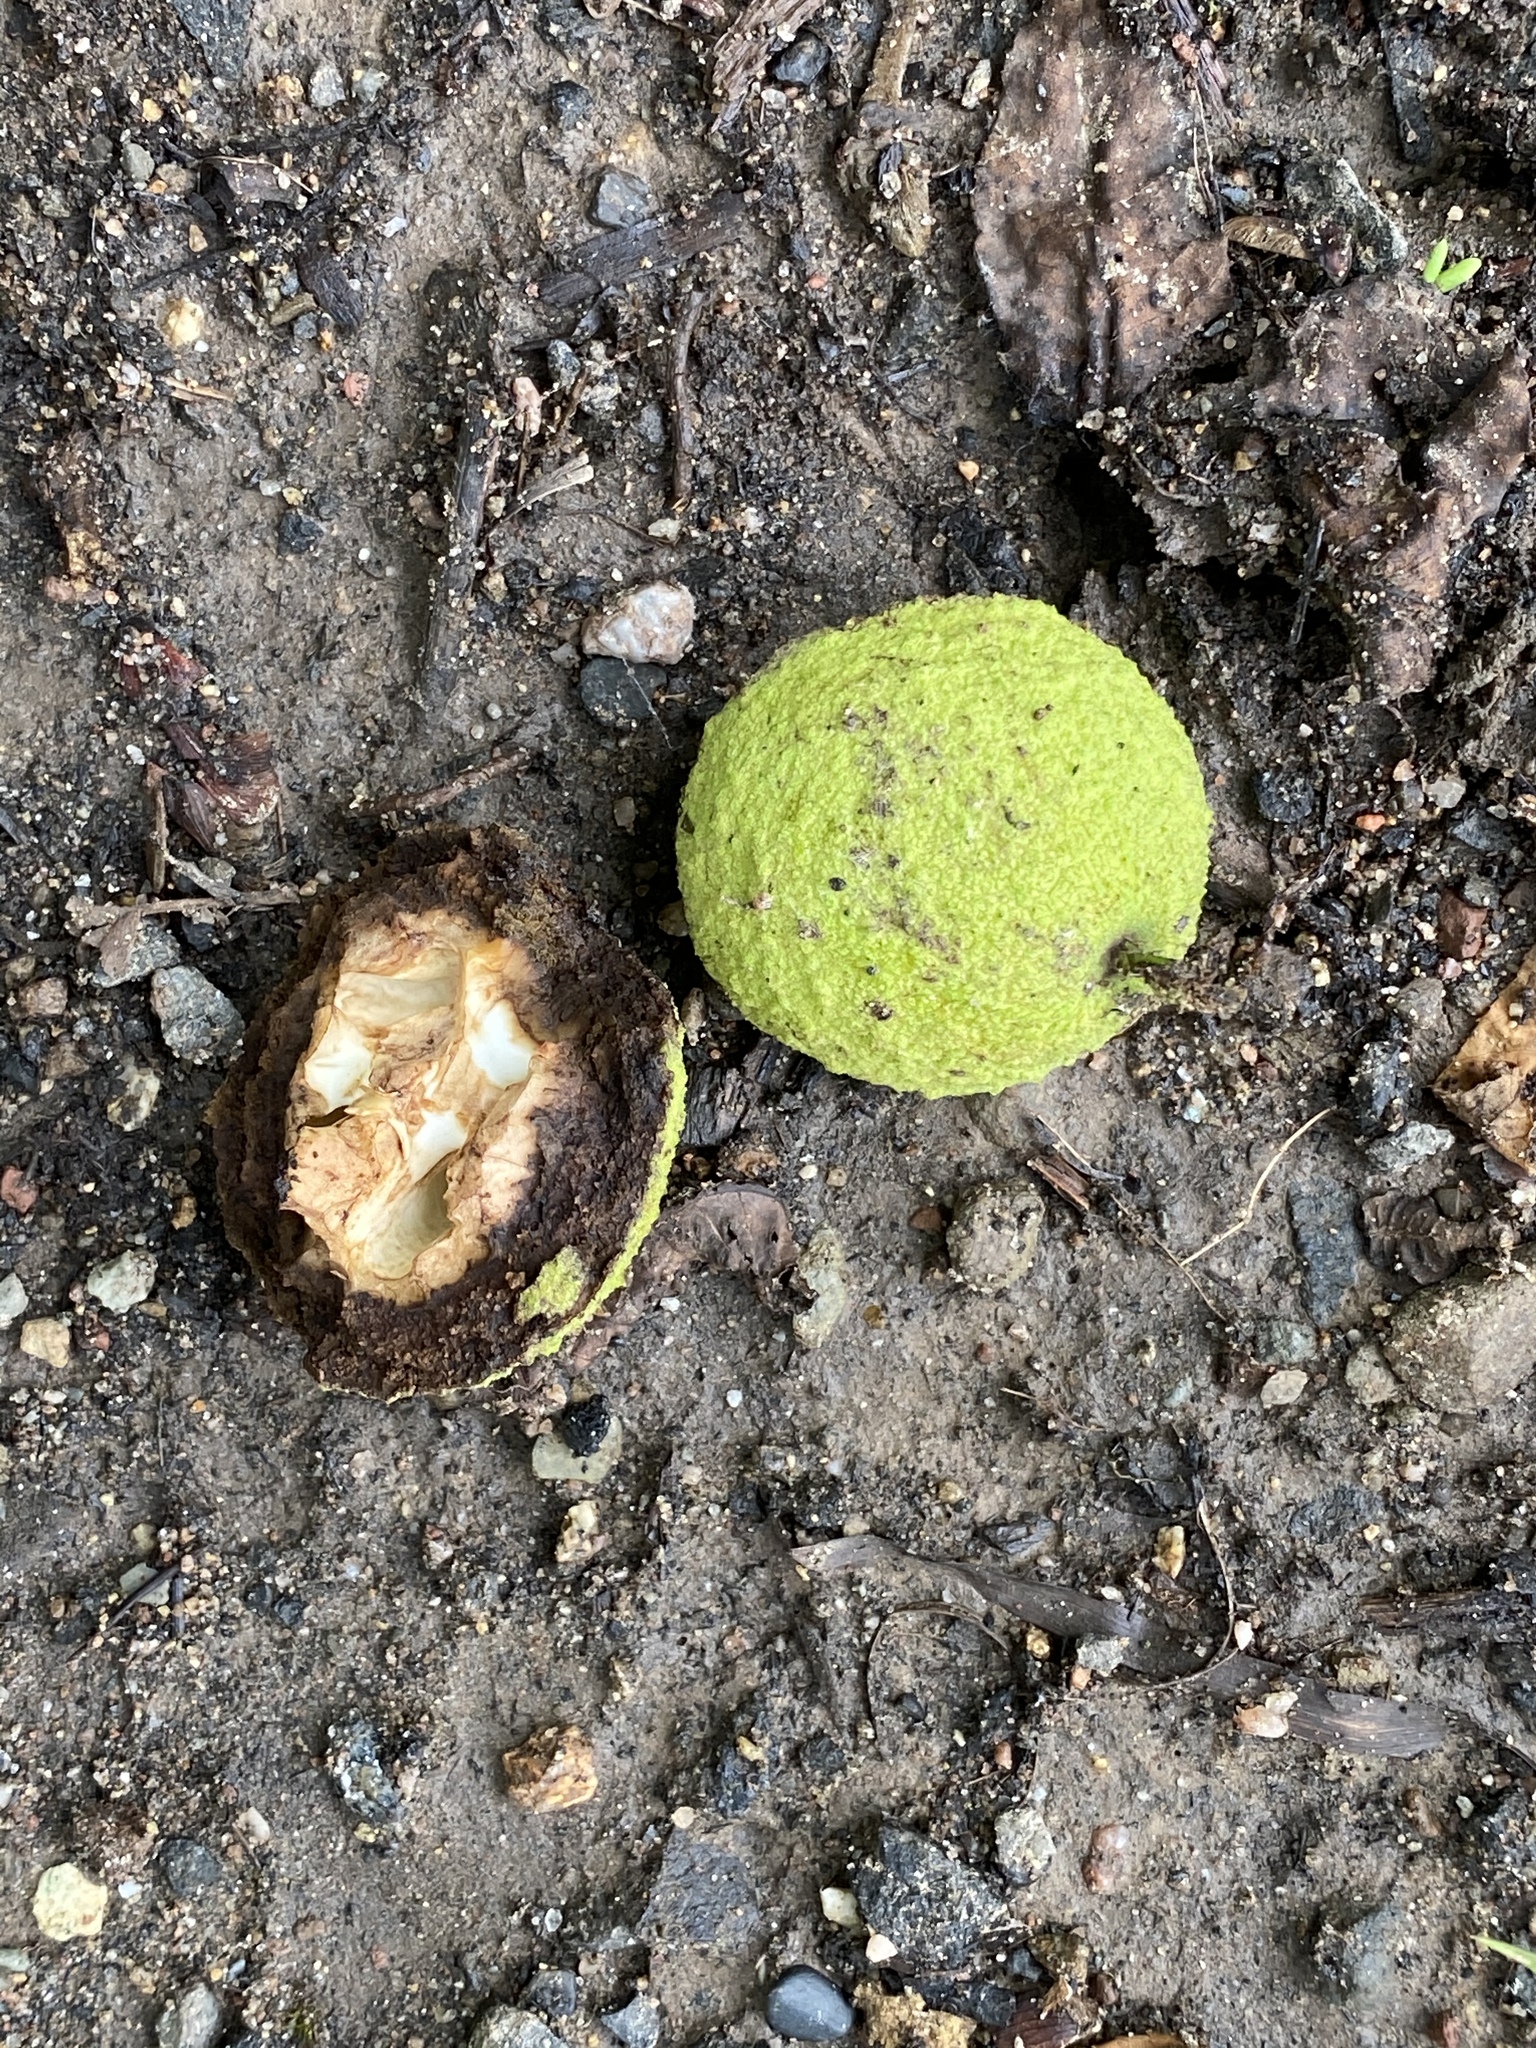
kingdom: Plantae
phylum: Tracheophyta
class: Magnoliopsida
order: Fagales
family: Juglandaceae
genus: Juglans
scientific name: Juglans nigra
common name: Black walnut
